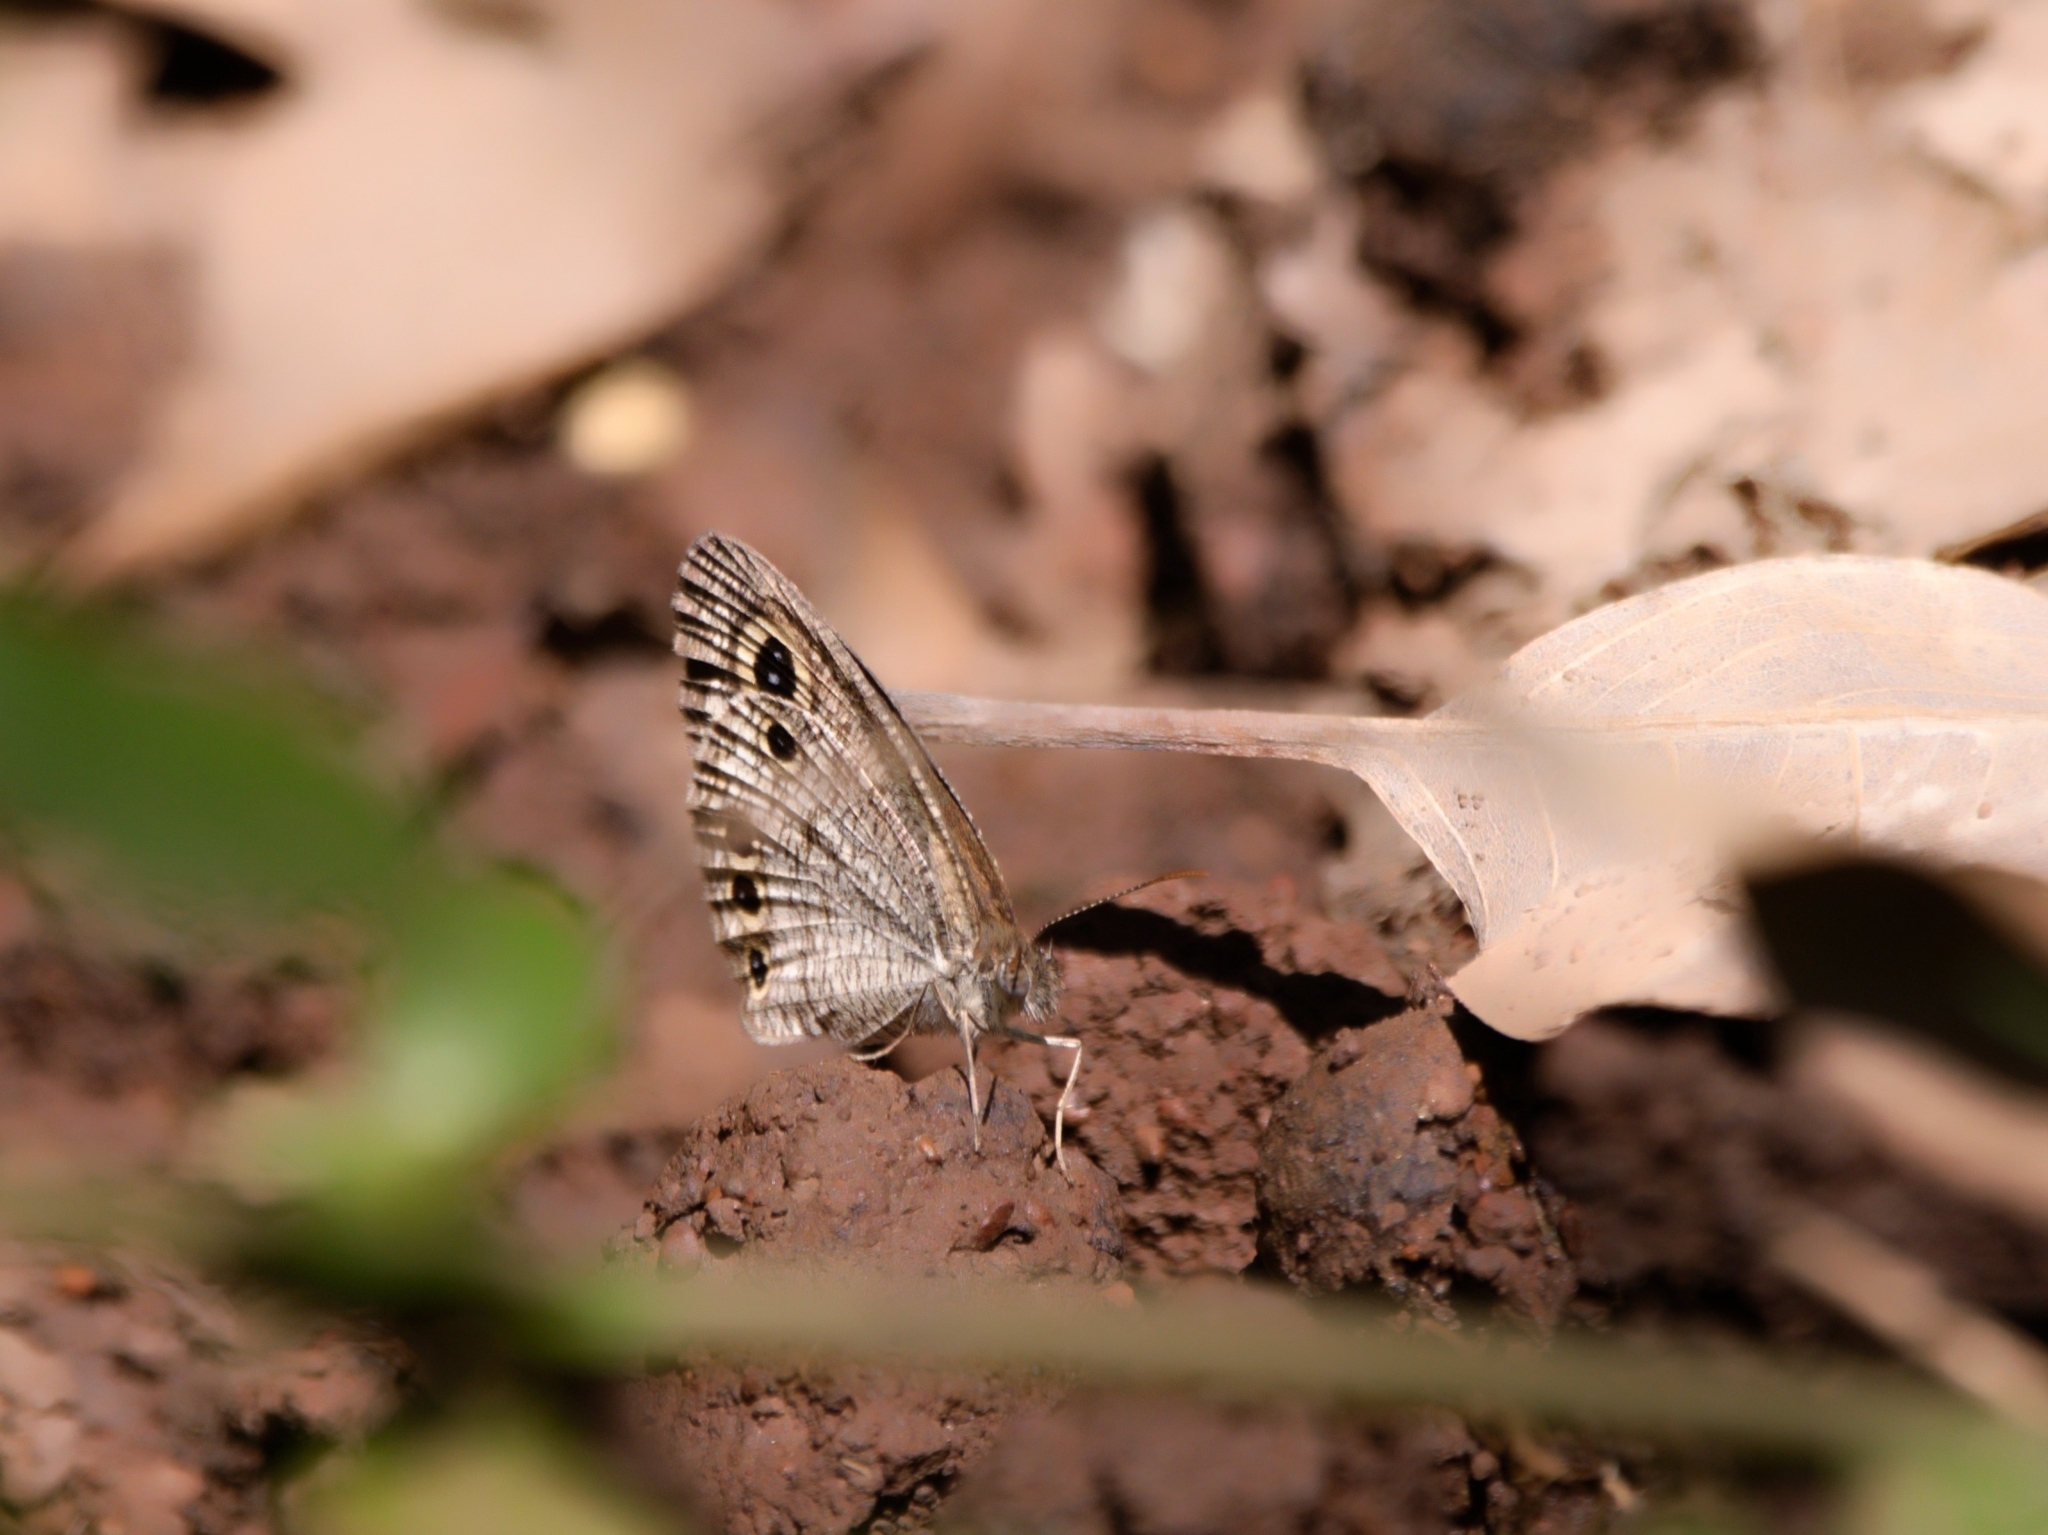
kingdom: Animalia
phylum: Arthropoda
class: Insecta
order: Lepidoptera
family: Nymphalidae
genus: Ypthima
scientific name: Ypthima huebneri
